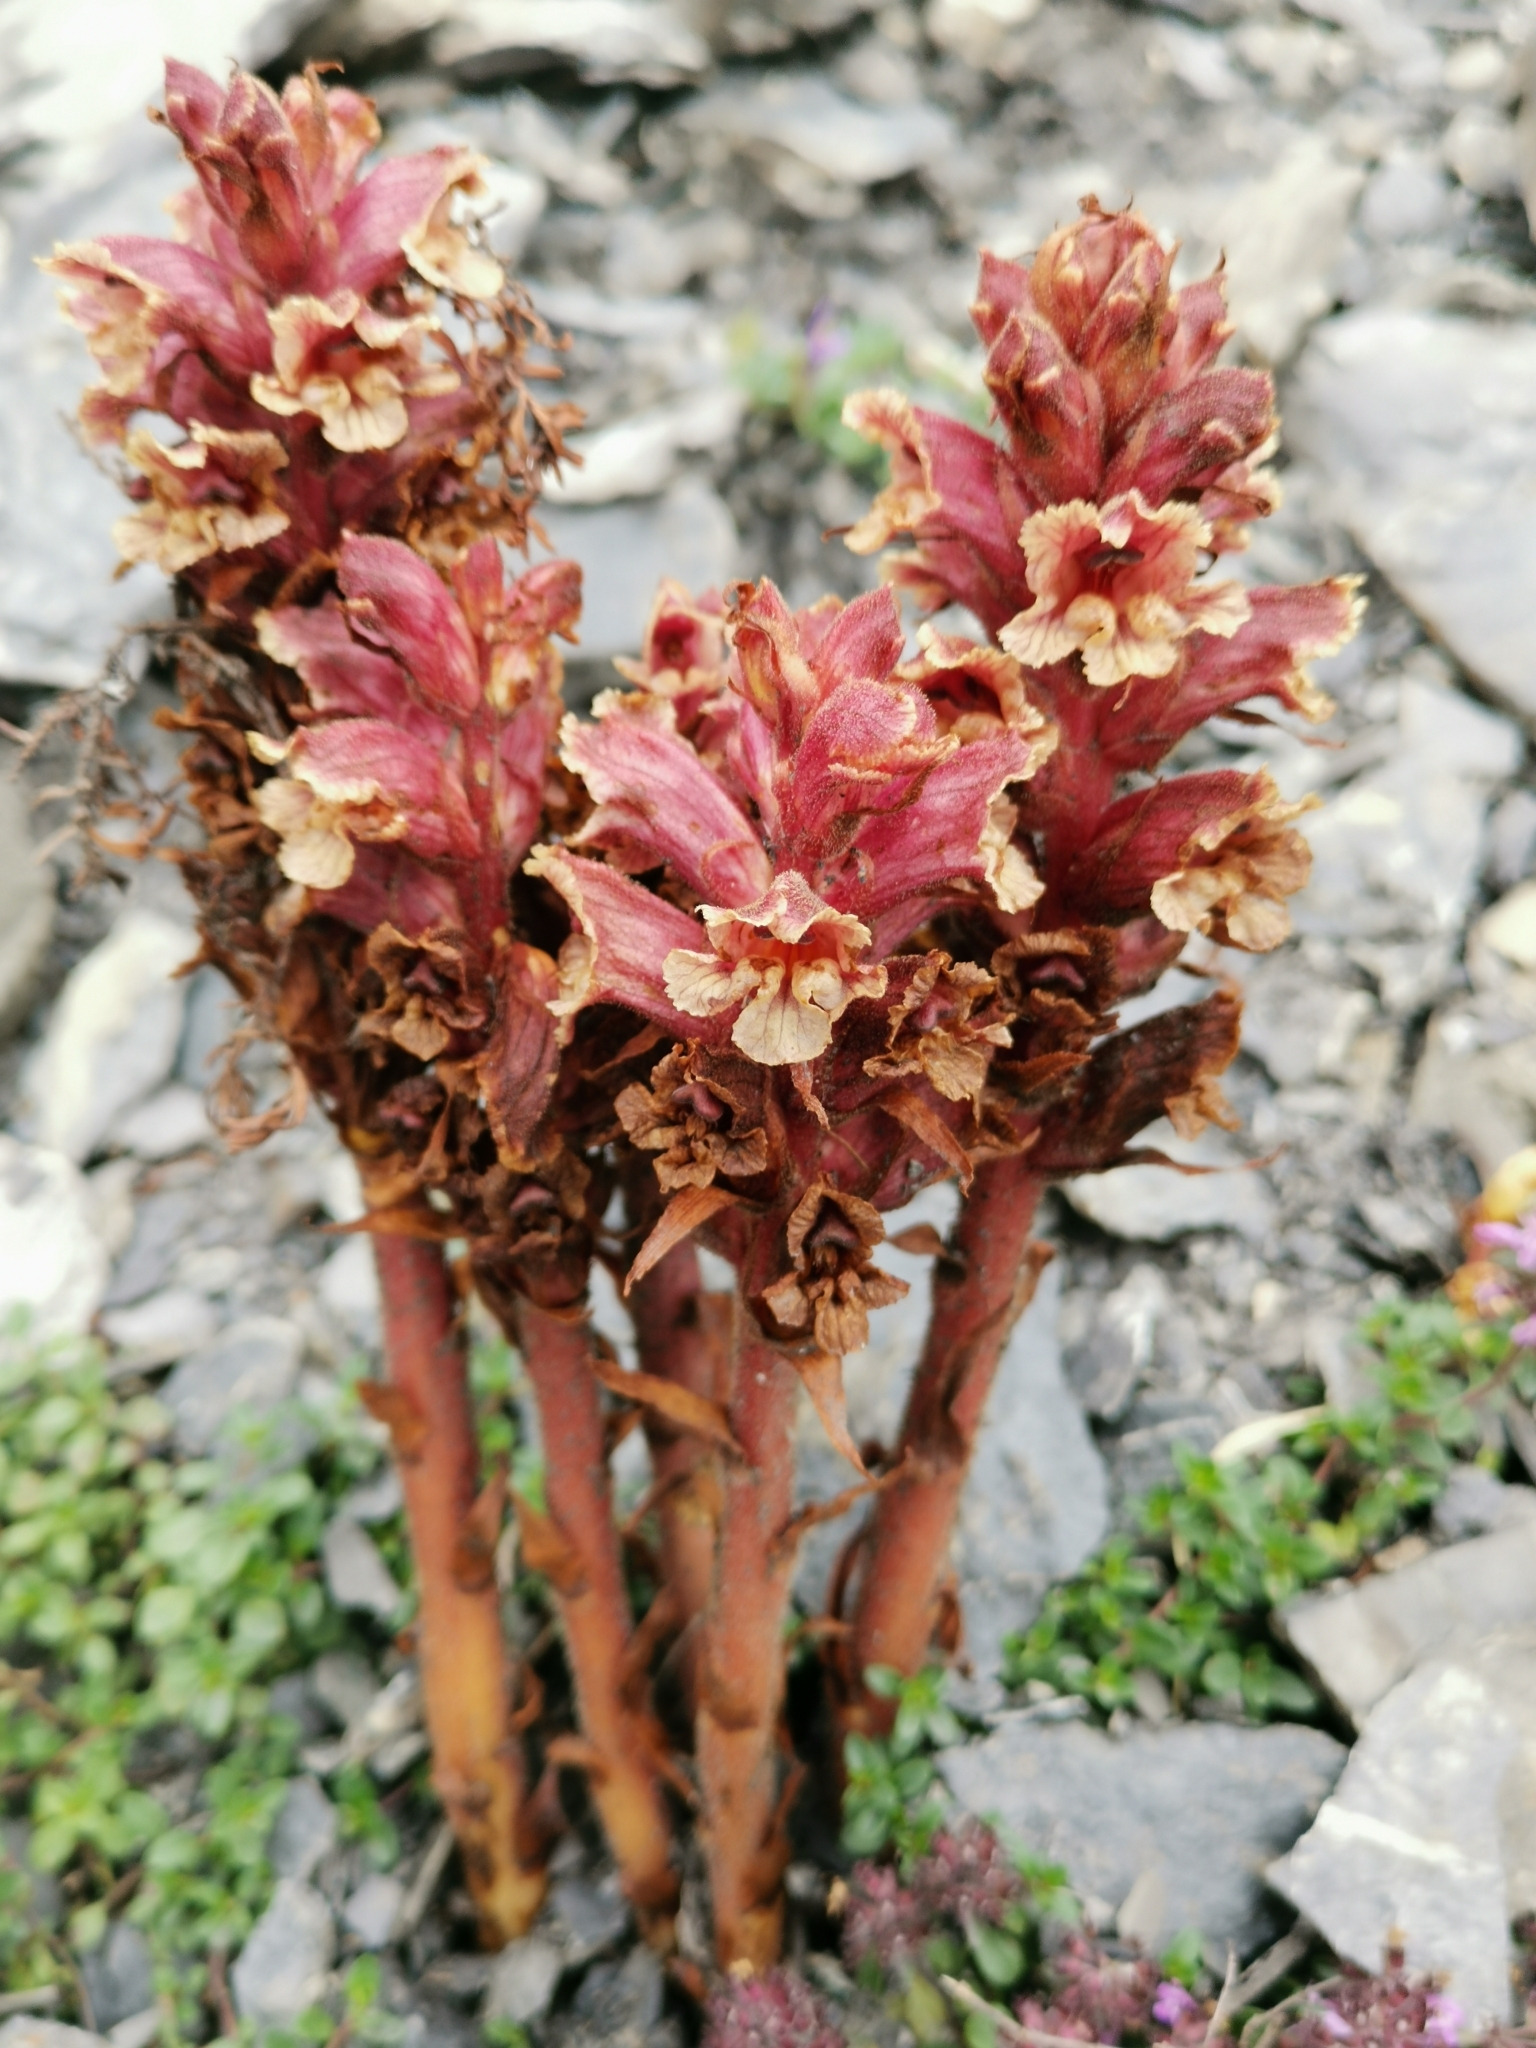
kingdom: Plantae
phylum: Tracheophyta
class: Magnoliopsida
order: Lamiales
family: Orobanchaceae
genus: Orobanche
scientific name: Orobanche alba
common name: Thyme broomrape
